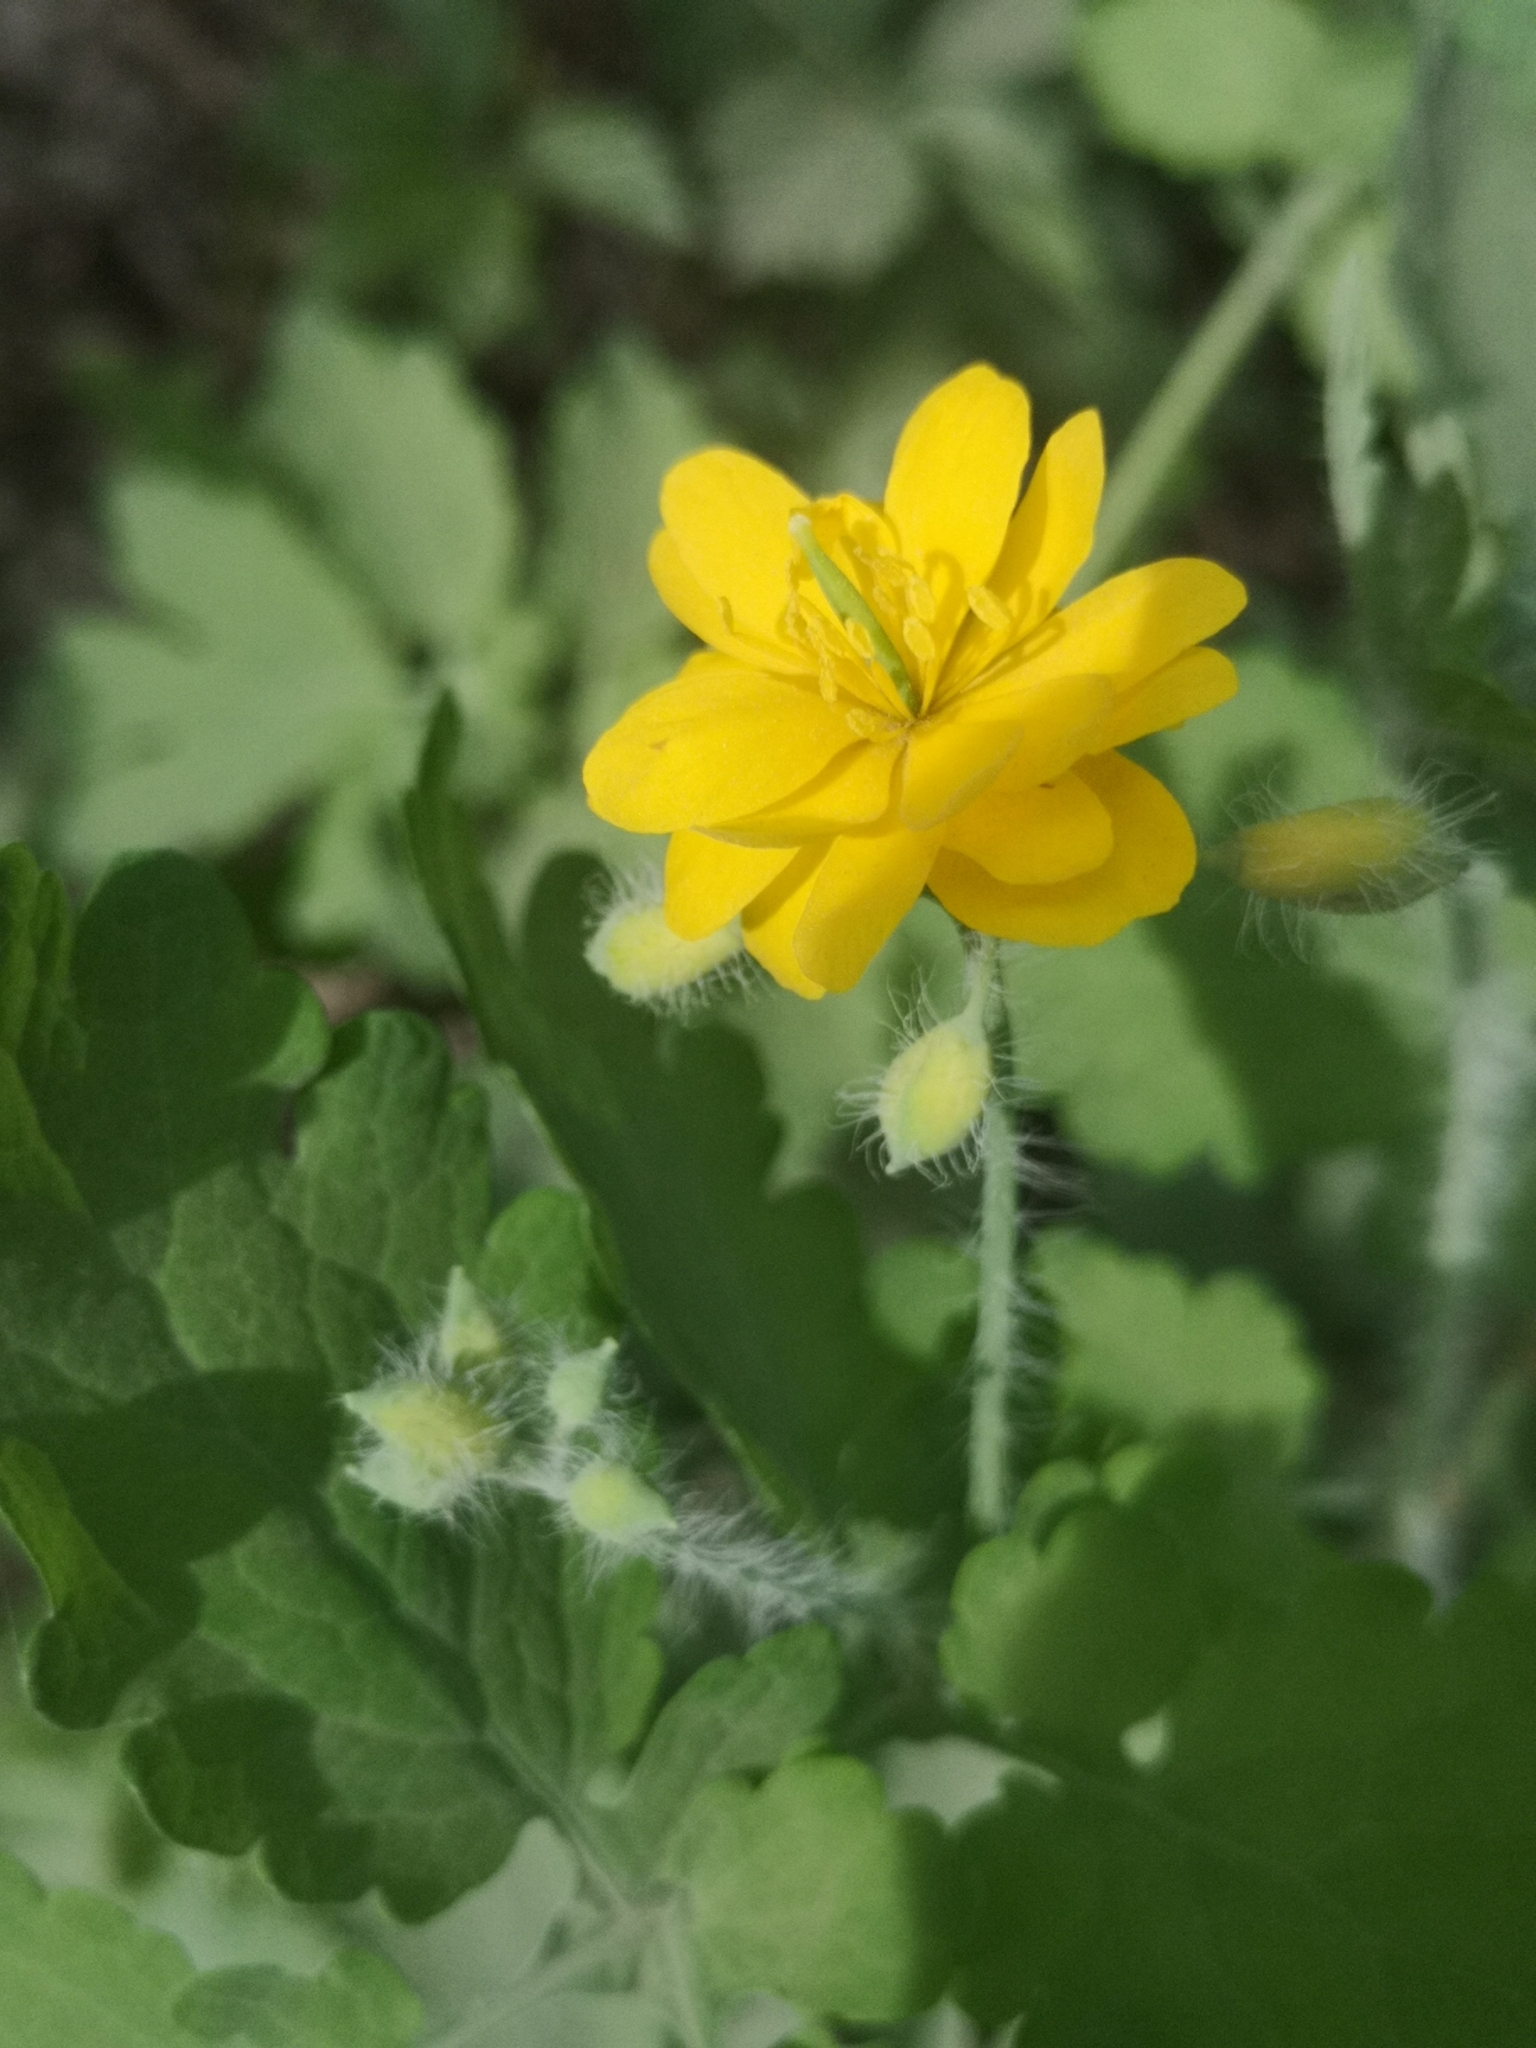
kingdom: Plantae
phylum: Tracheophyta
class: Magnoliopsida
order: Ranunculales
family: Papaveraceae
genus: Chelidonium
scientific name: Chelidonium majus
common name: Greater celandine
